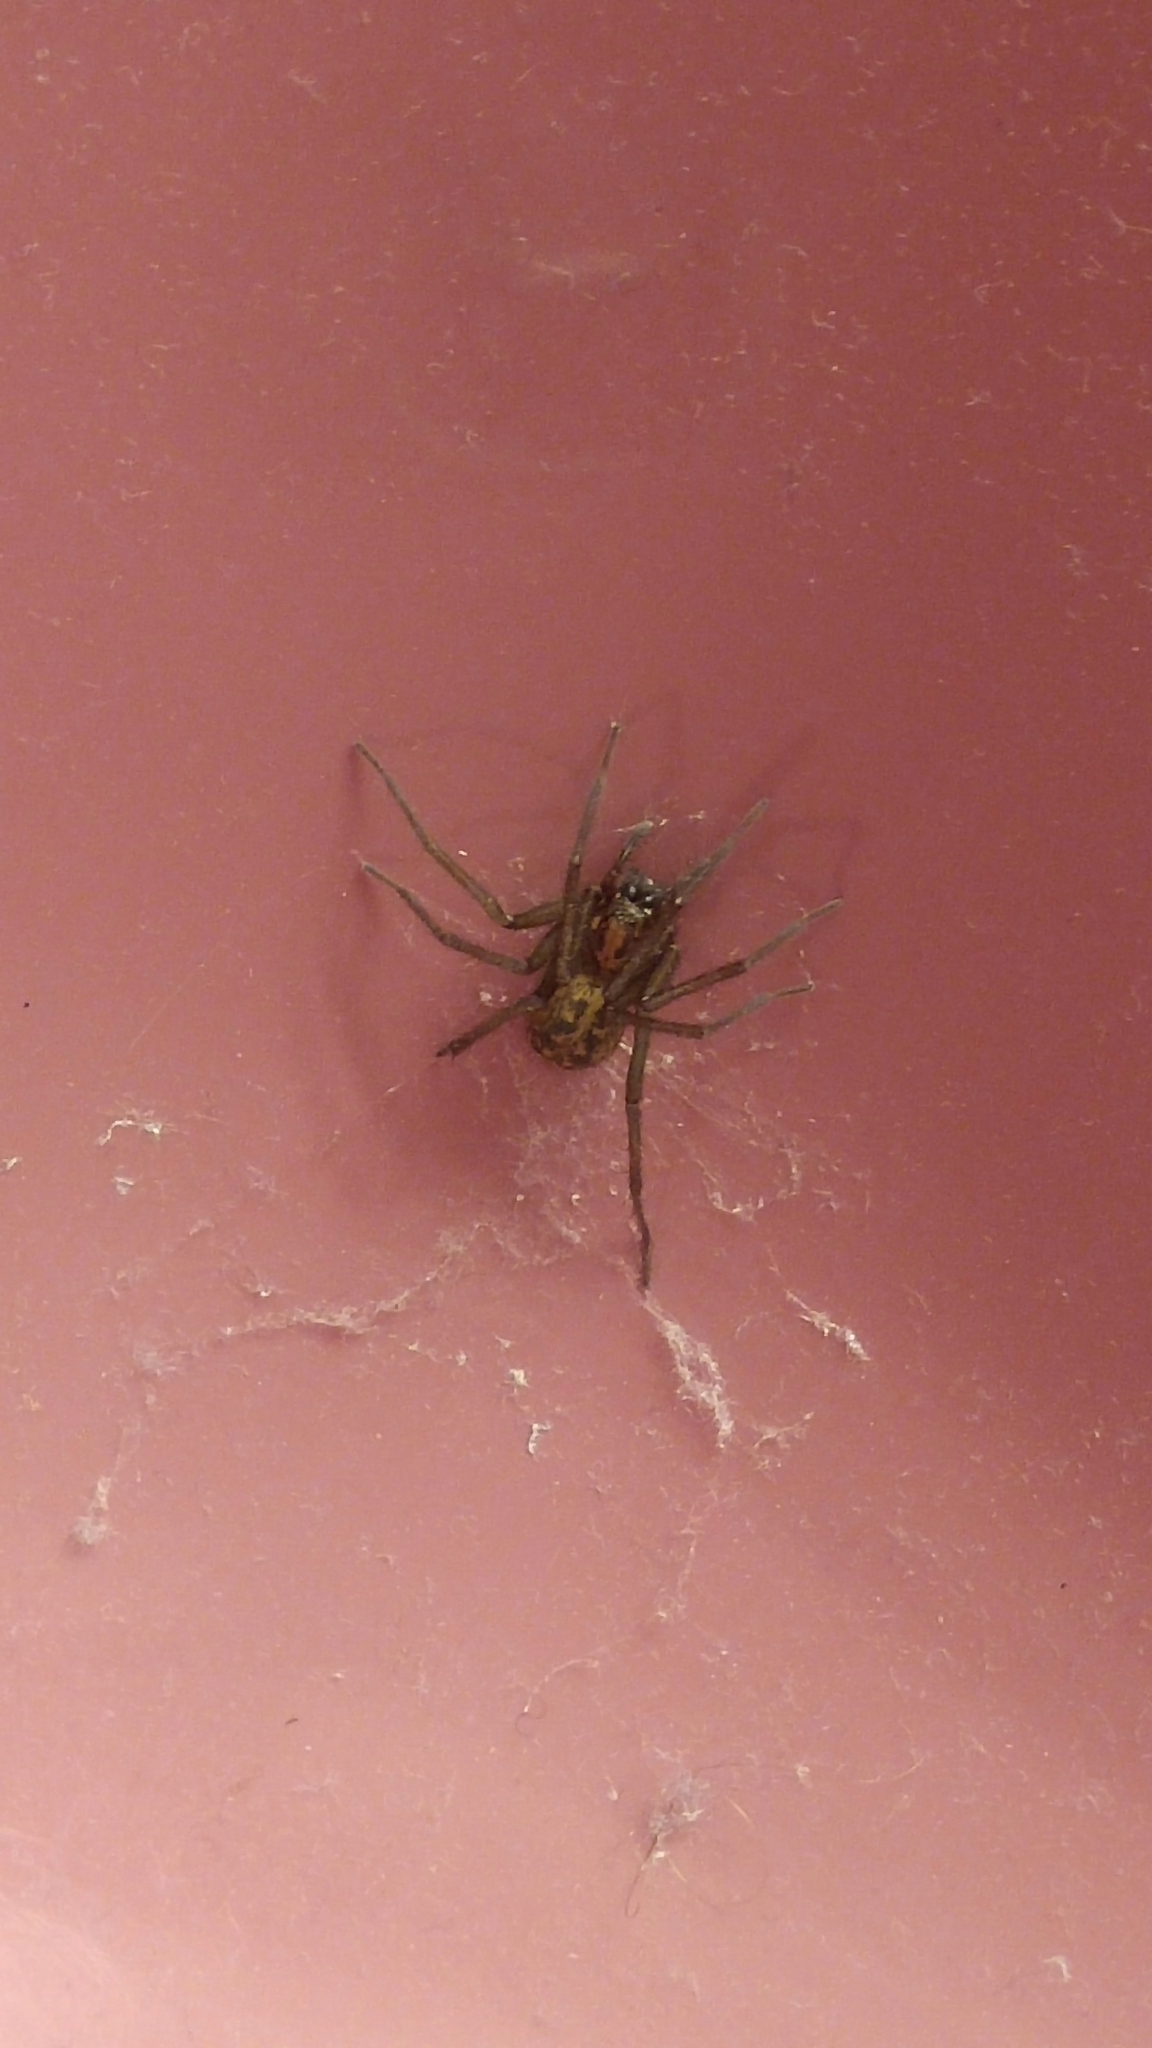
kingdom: Animalia
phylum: Arthropoda
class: Arachnida
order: Araneae
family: Agelenidae
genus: Eratigena
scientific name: Eratigena duellica
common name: Giant house spider
